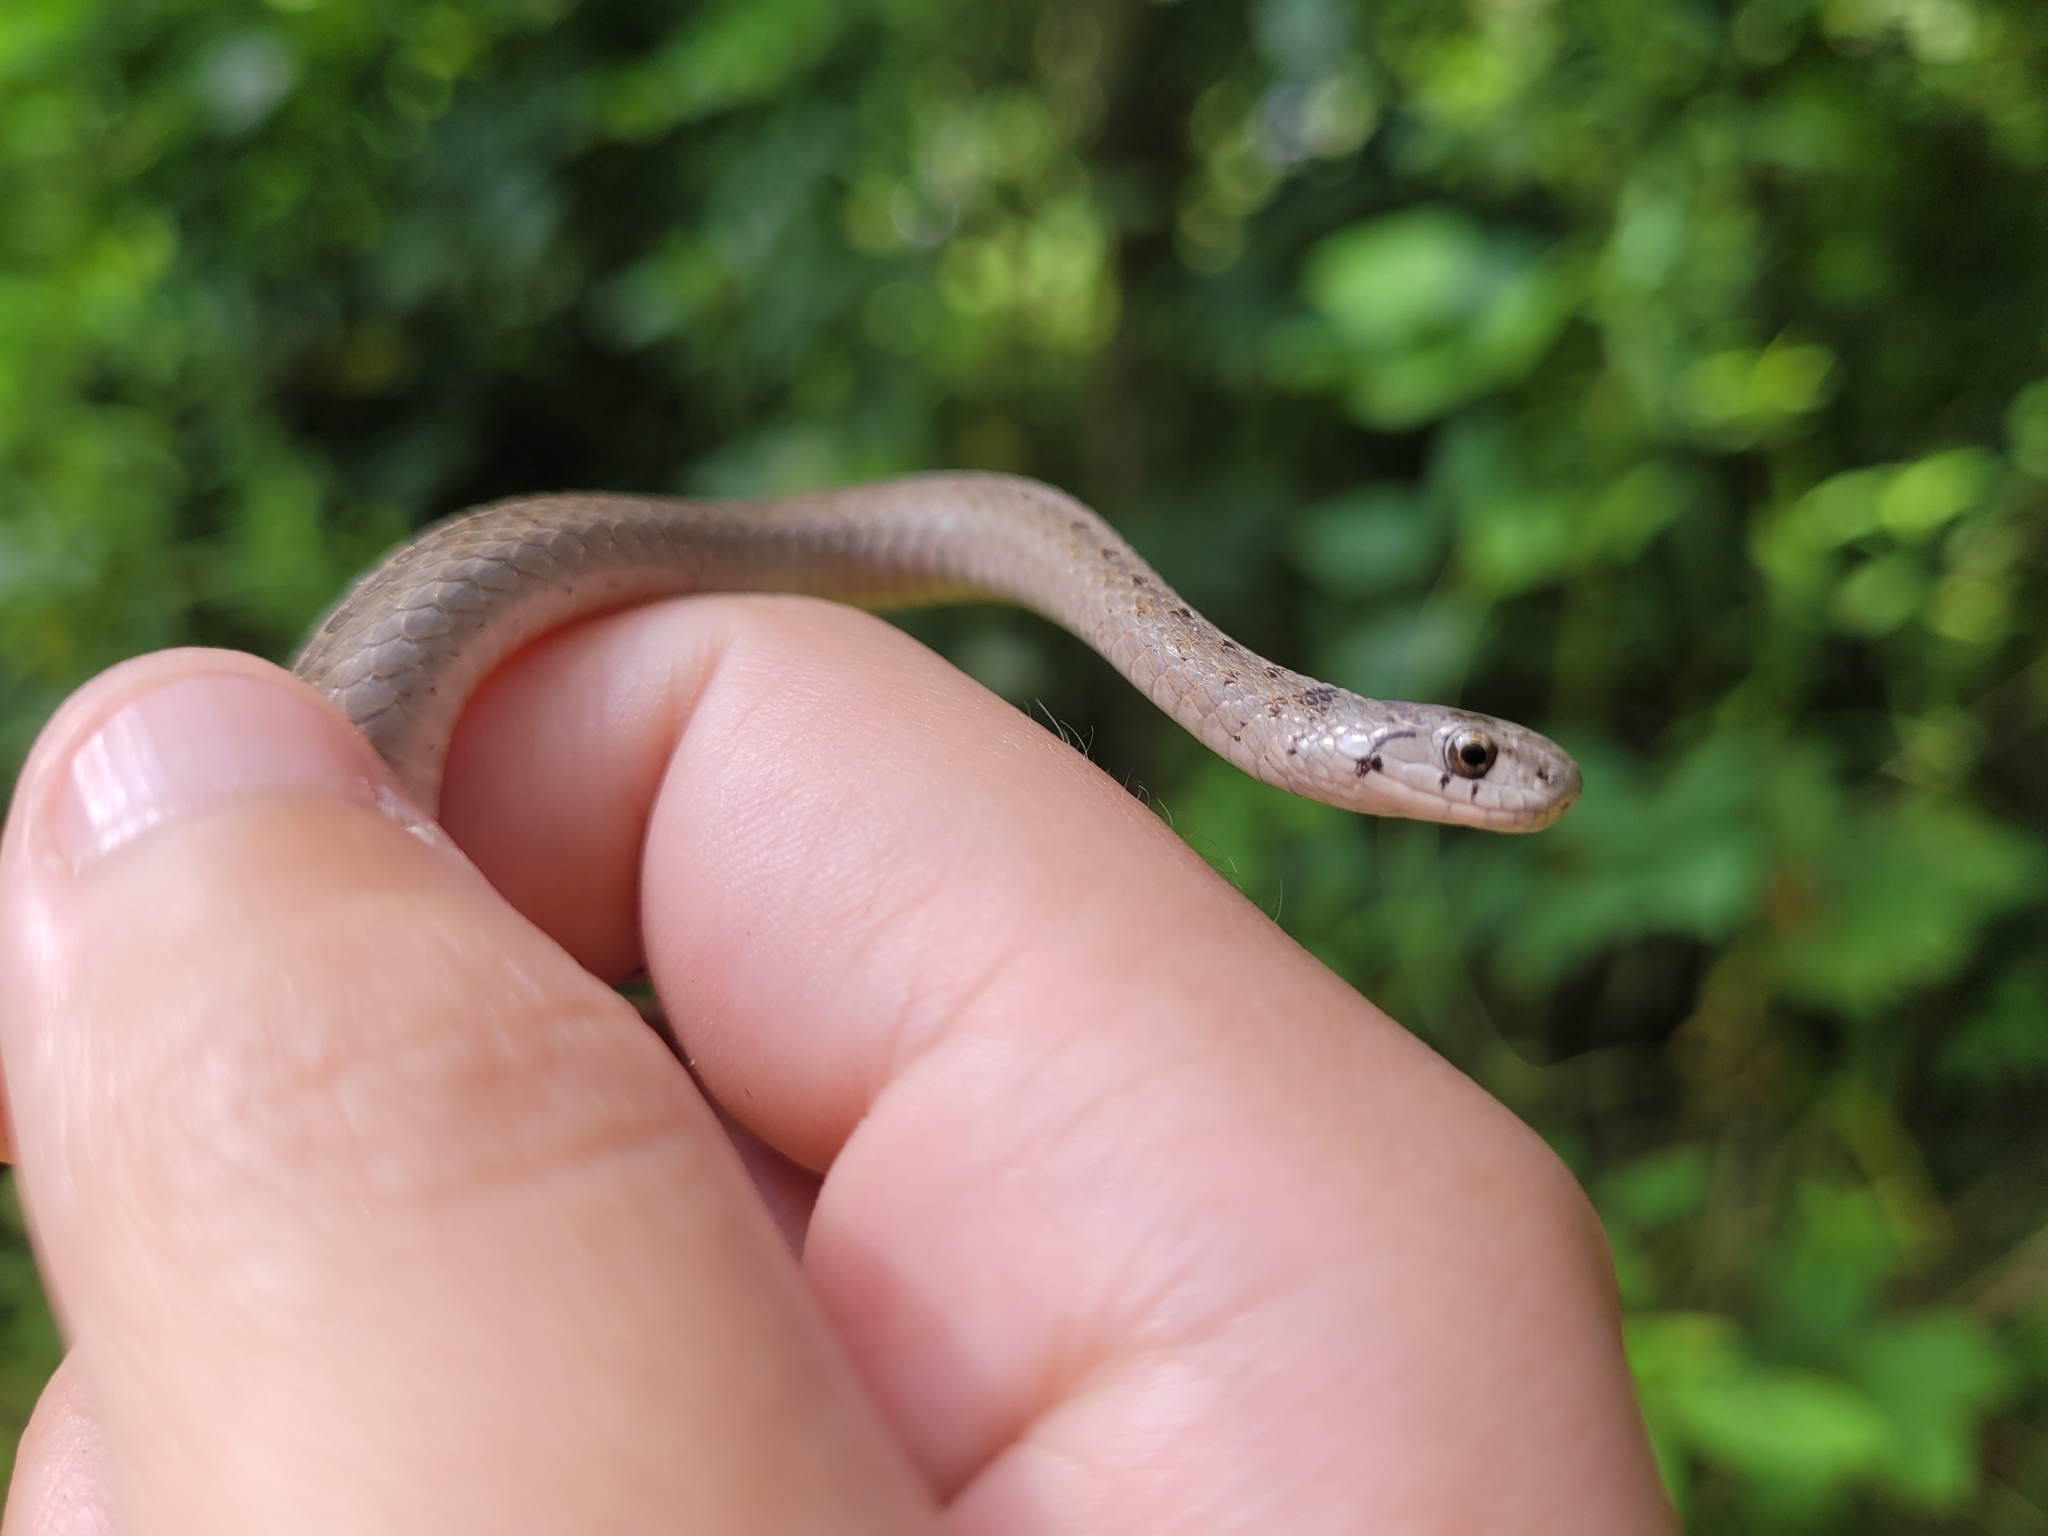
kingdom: Animalia
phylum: Chordata
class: Squamata
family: Colubridae
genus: Storeria
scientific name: Storeria dekayi
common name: (dekay’s) brown snake
